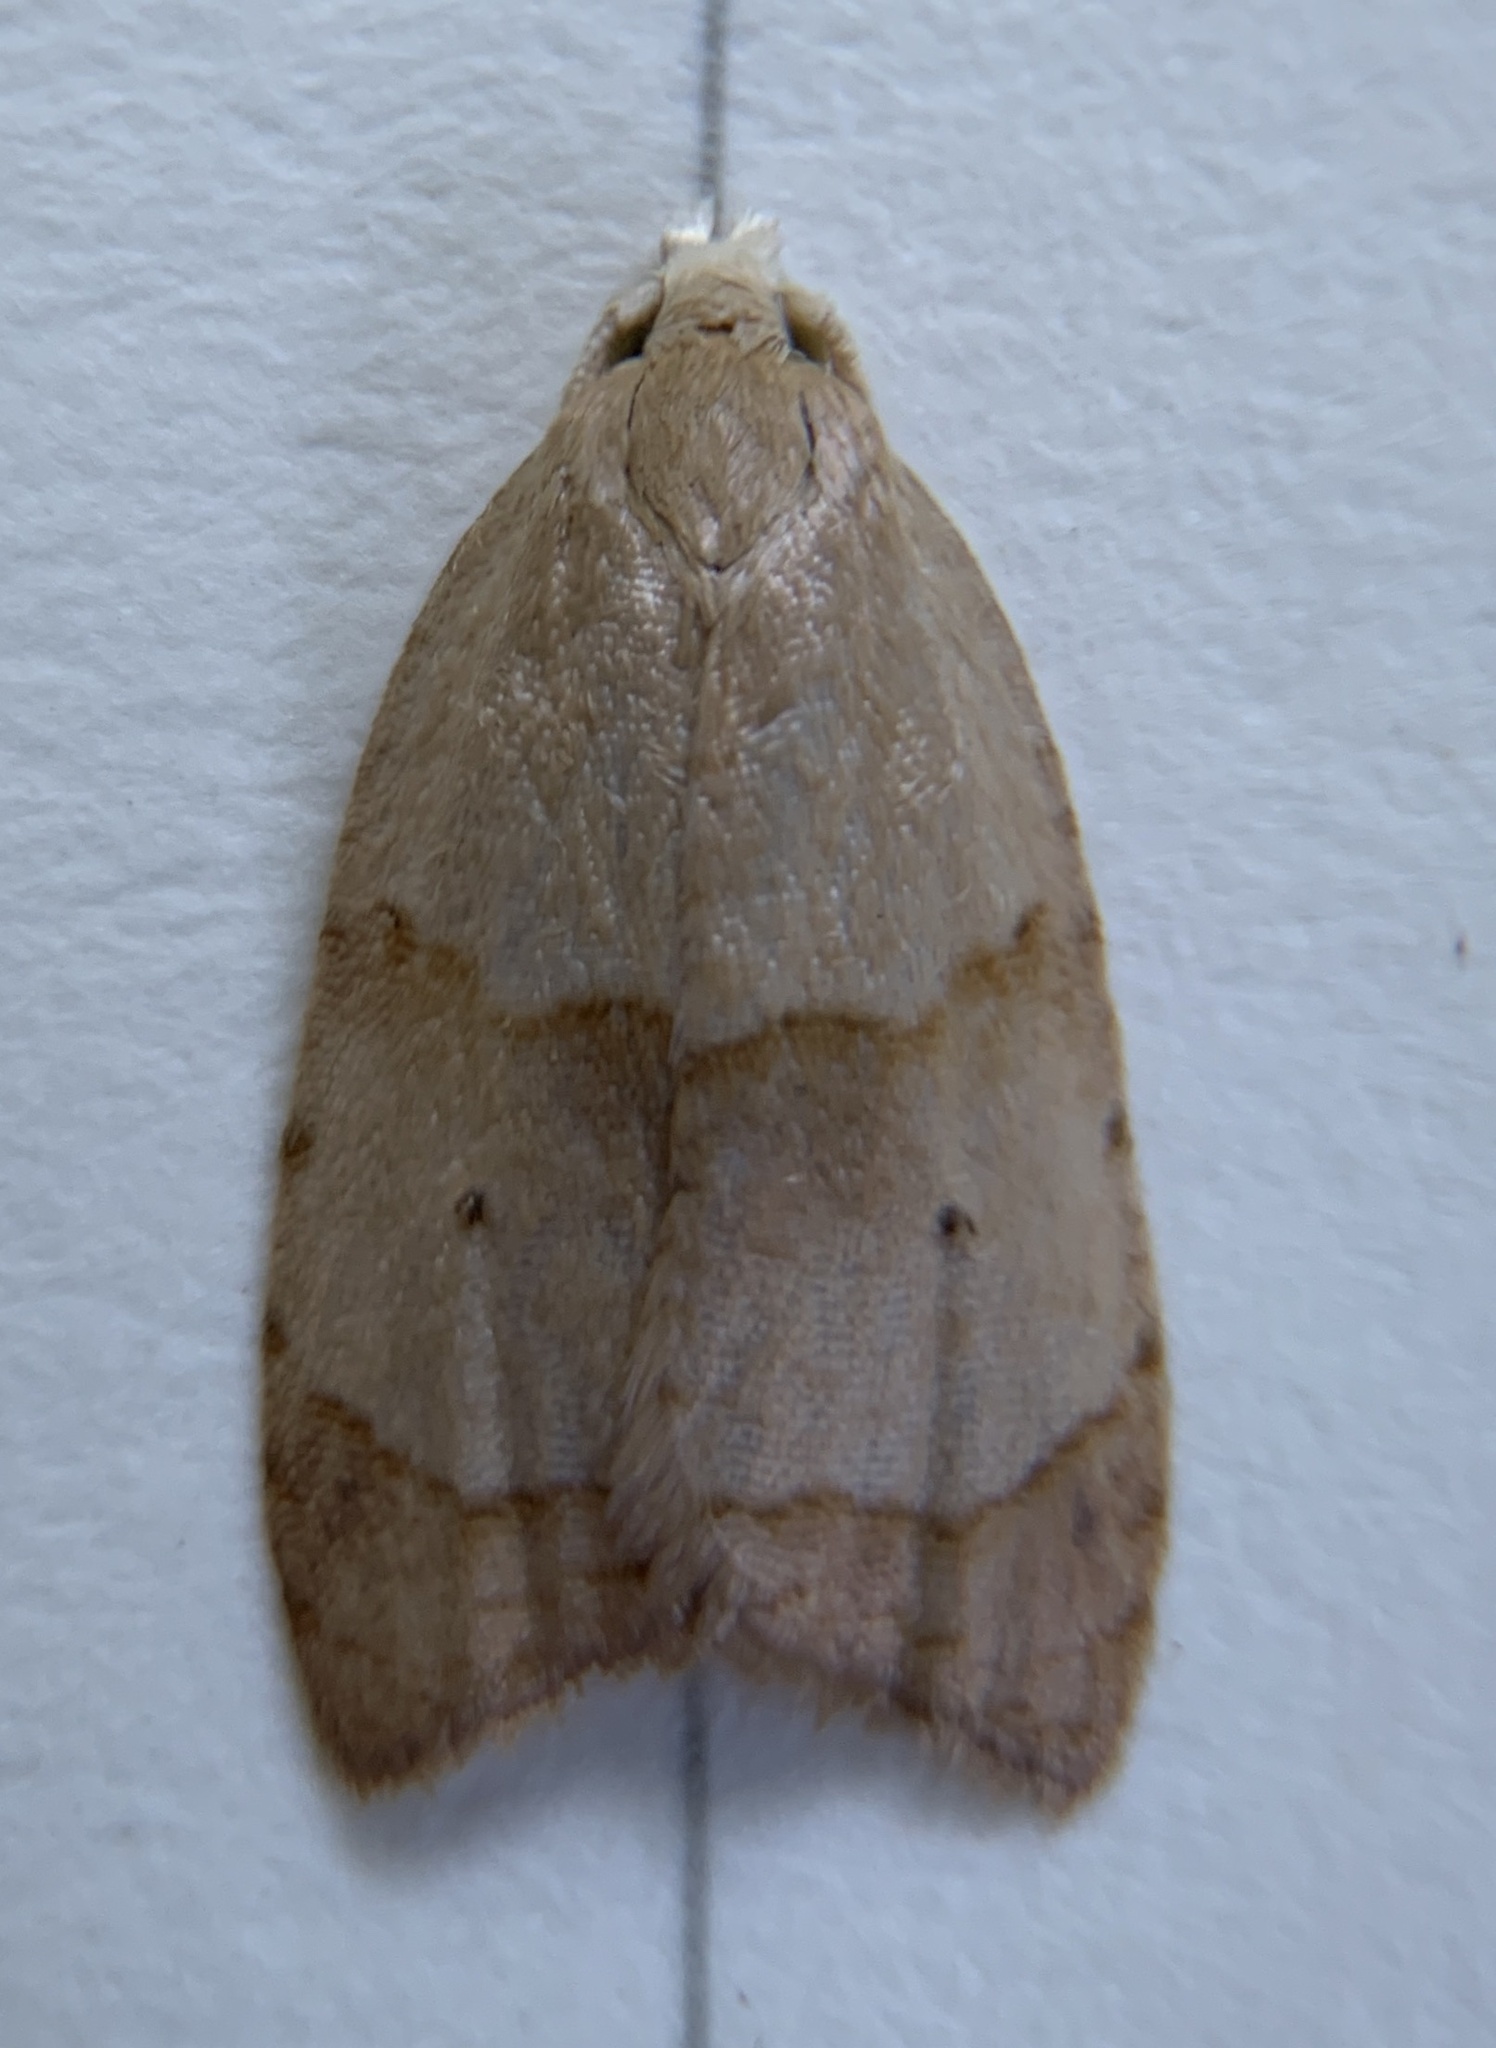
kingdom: Animalia
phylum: Arthropoda
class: Insecta
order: Lepidoptera
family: Tortricidae
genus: Coelostathma
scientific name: Coelostathma discopunctana
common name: Batman moth
